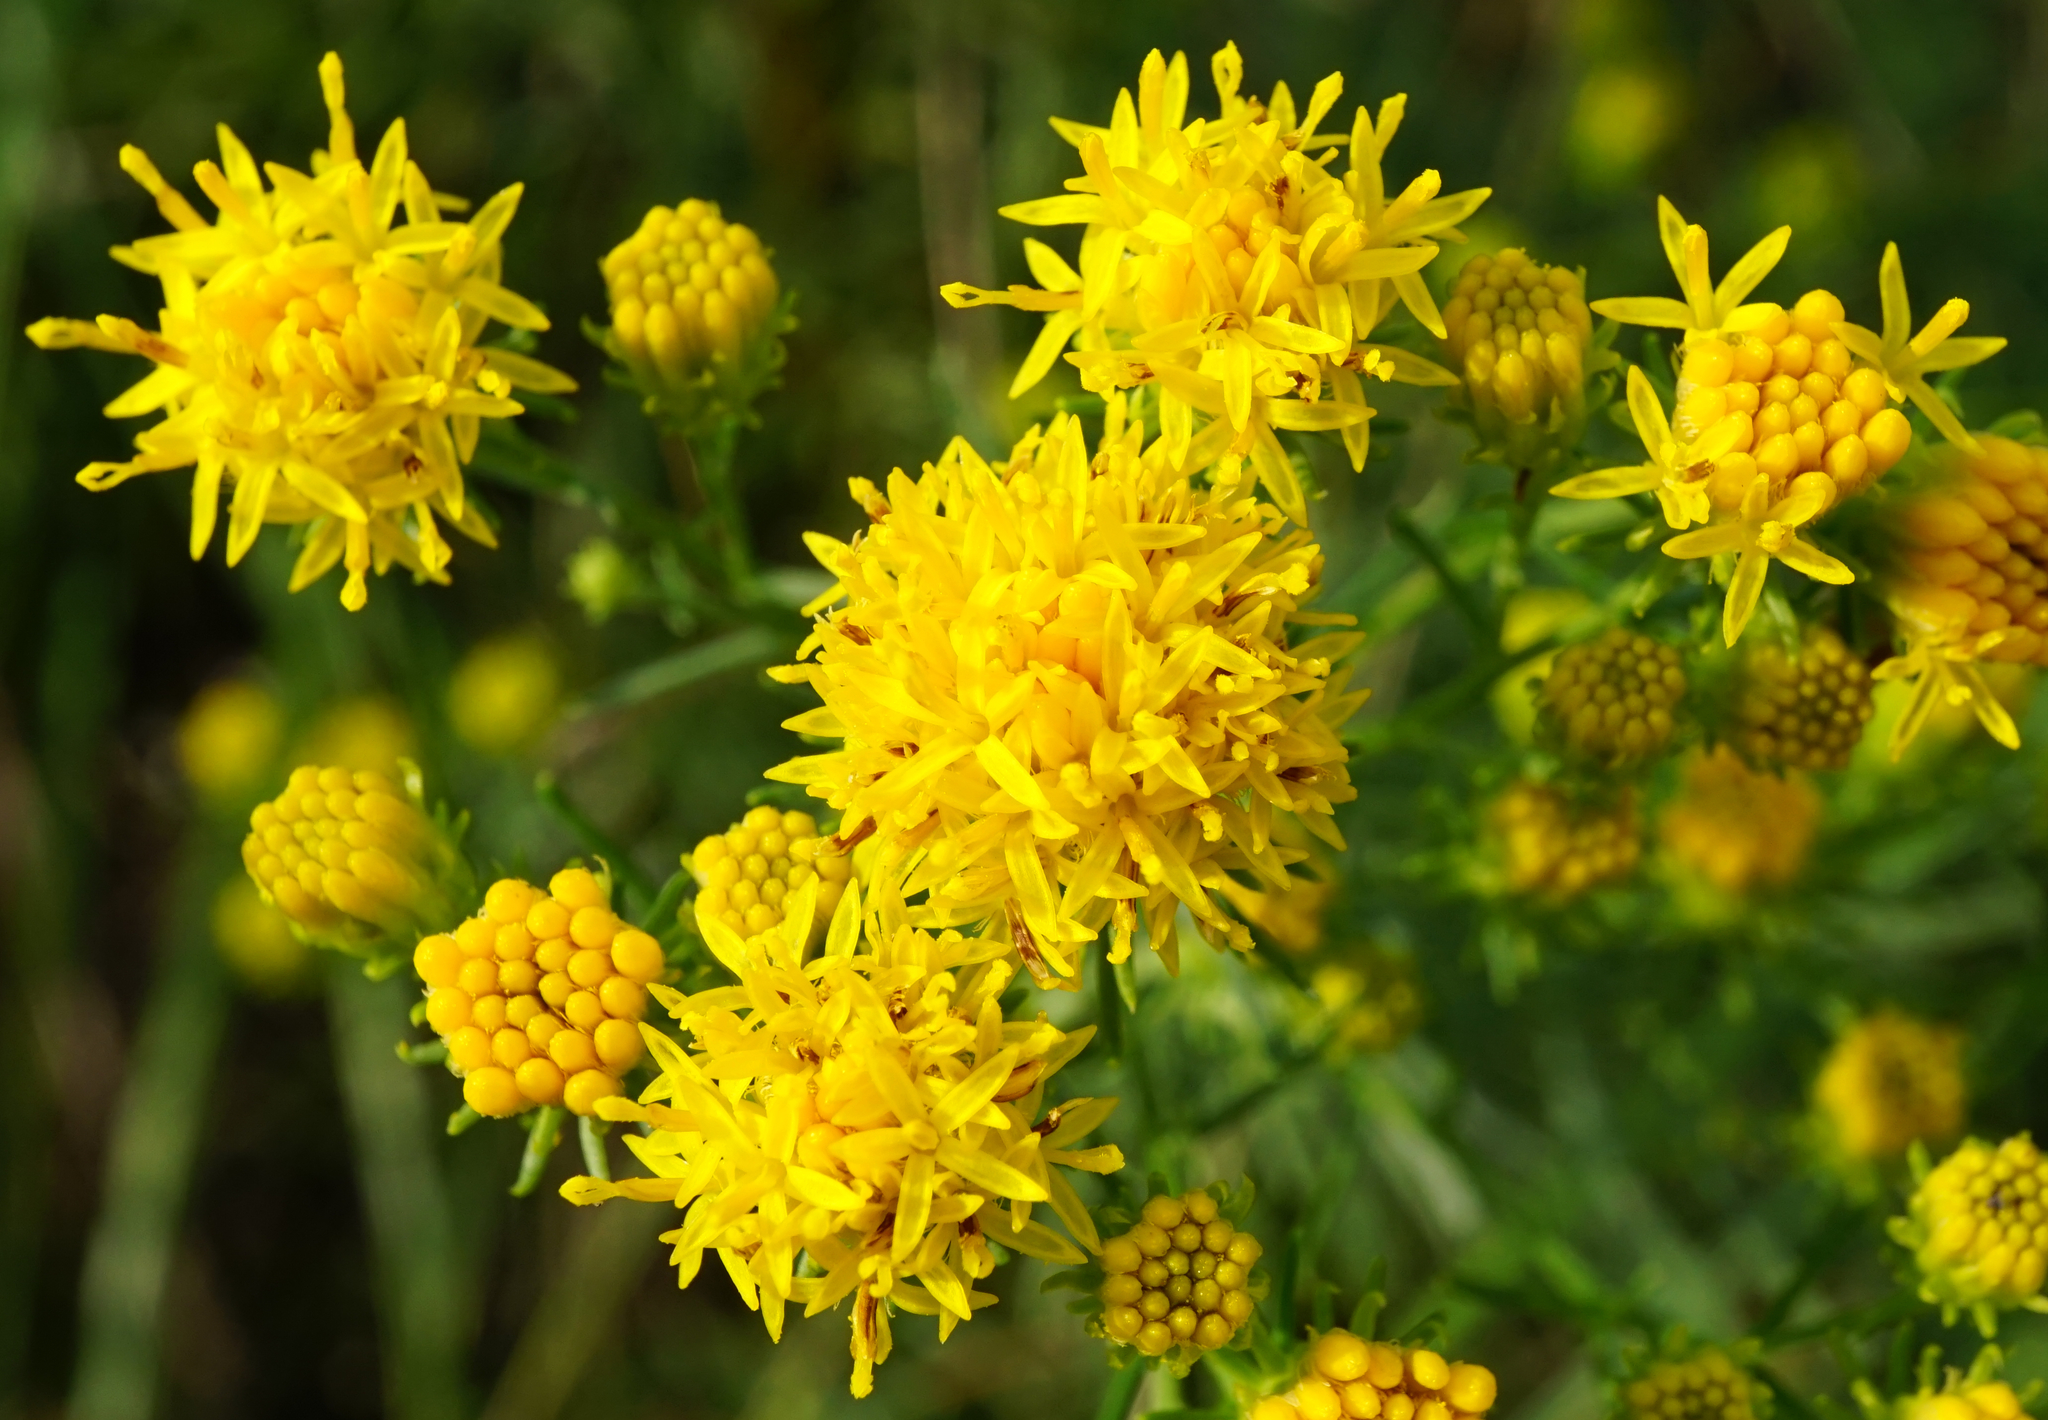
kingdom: Plantae
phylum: Tracheophyta
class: Magnoliopsida
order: Asterales
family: Asteraceae
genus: Galatella
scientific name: Galatella linosyris
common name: Goldilocks aster
